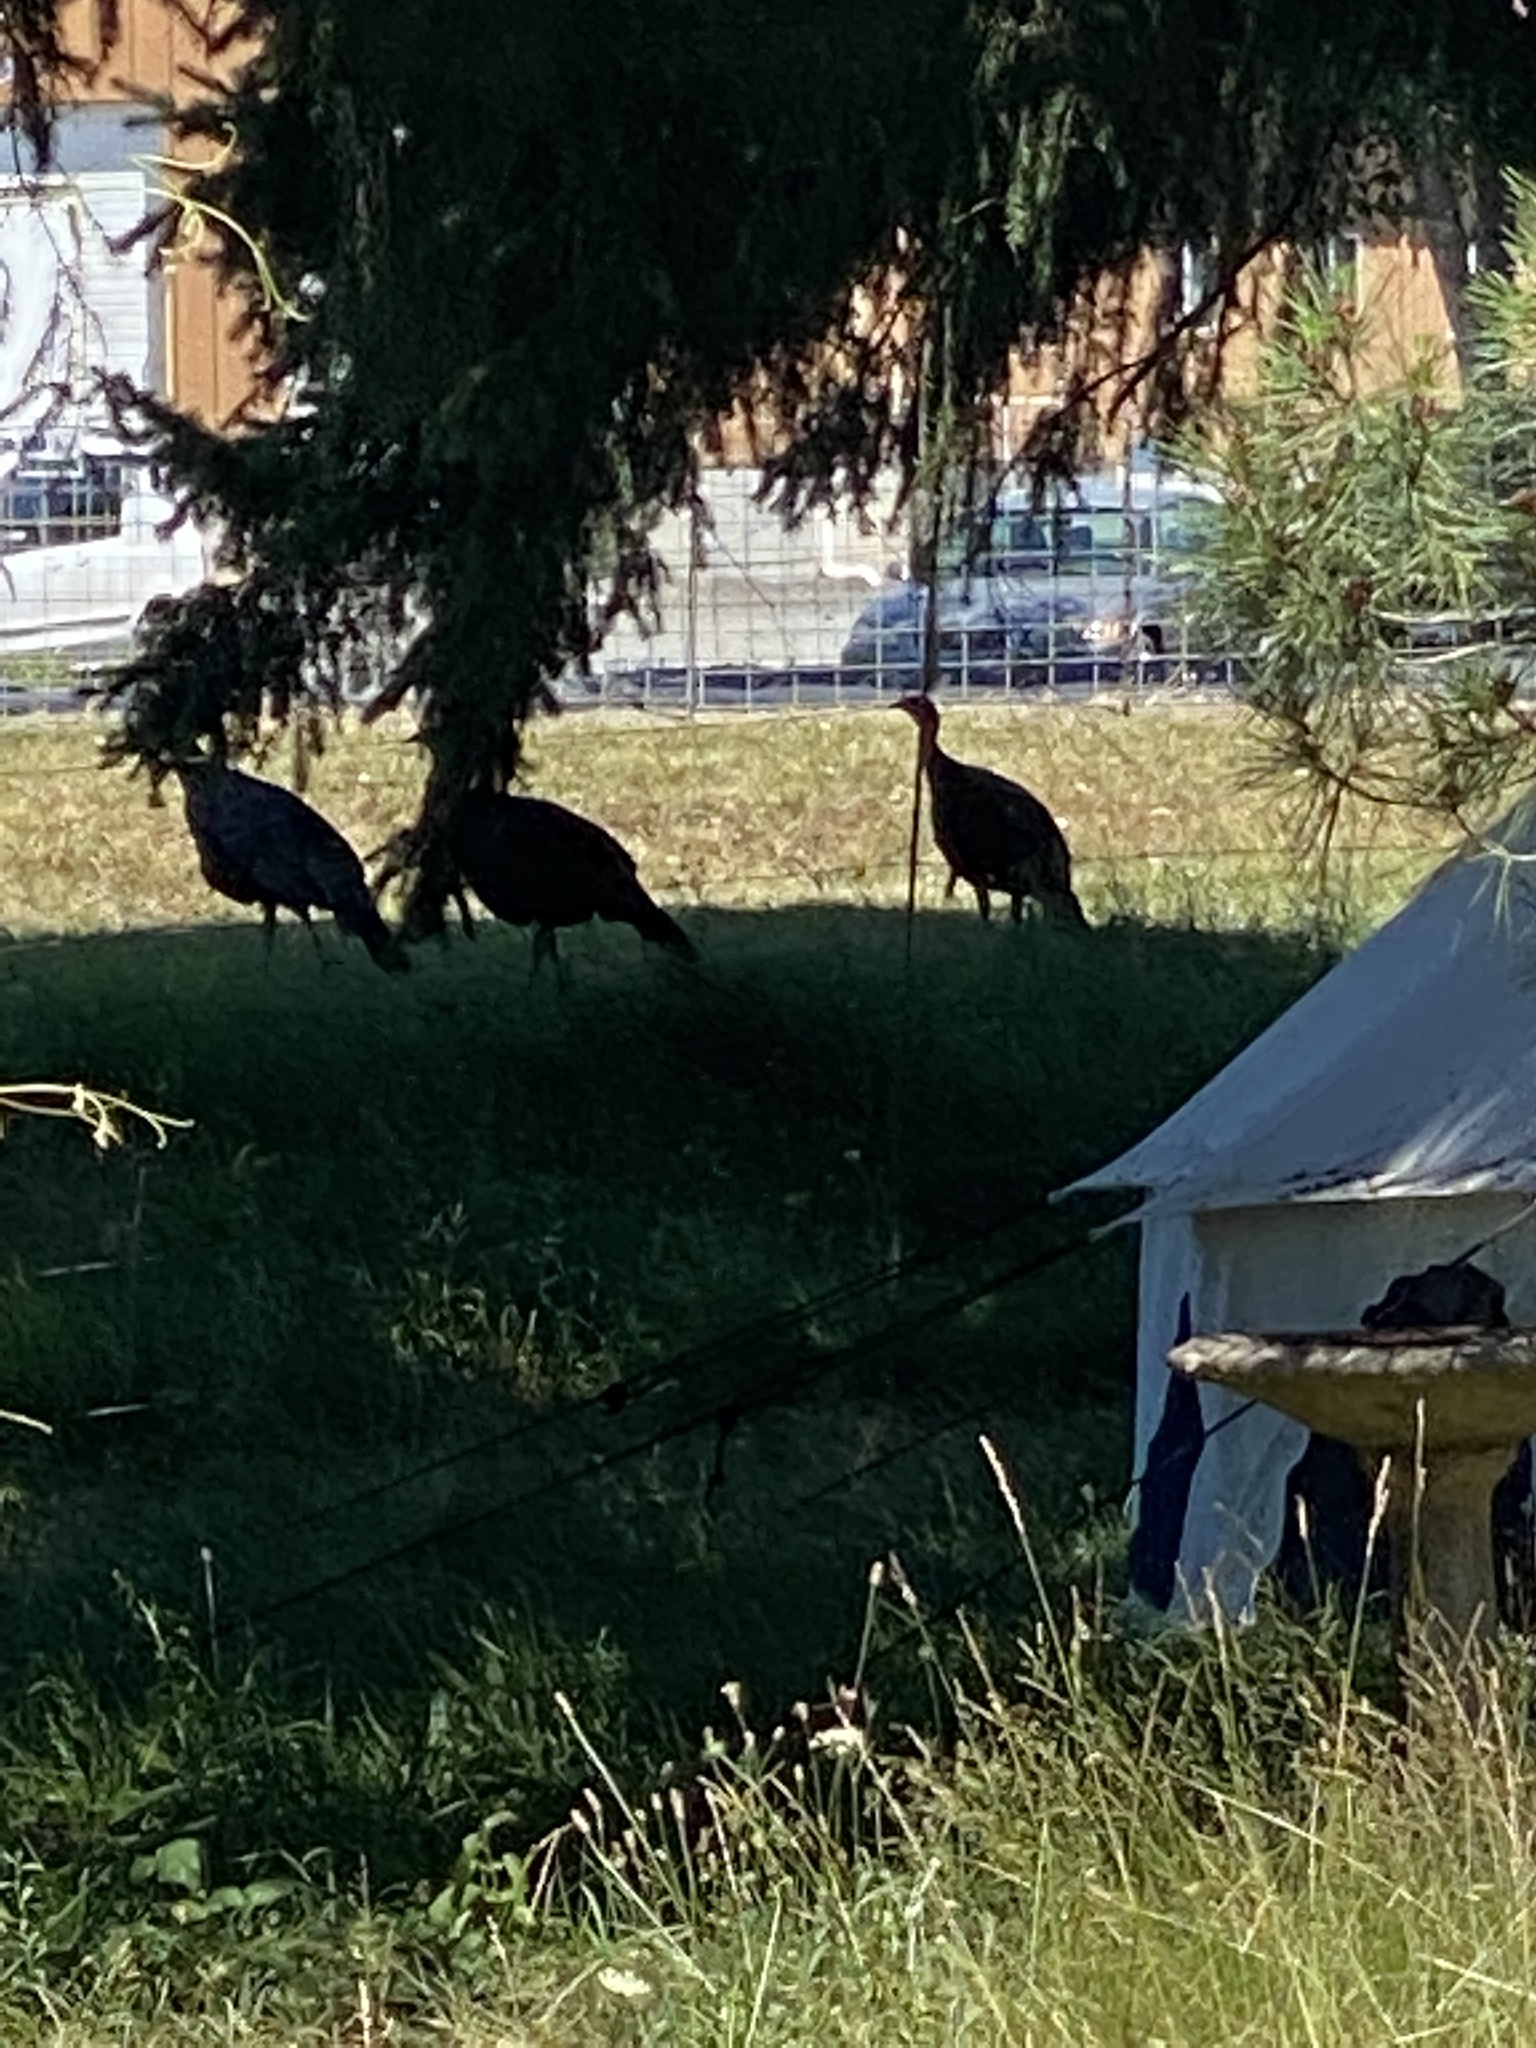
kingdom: Animalia
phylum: Chordata
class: Aves
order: Galliformes
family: Phasianidae
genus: Meleagris
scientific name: Meleagris gallopavo
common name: Wild turkey
